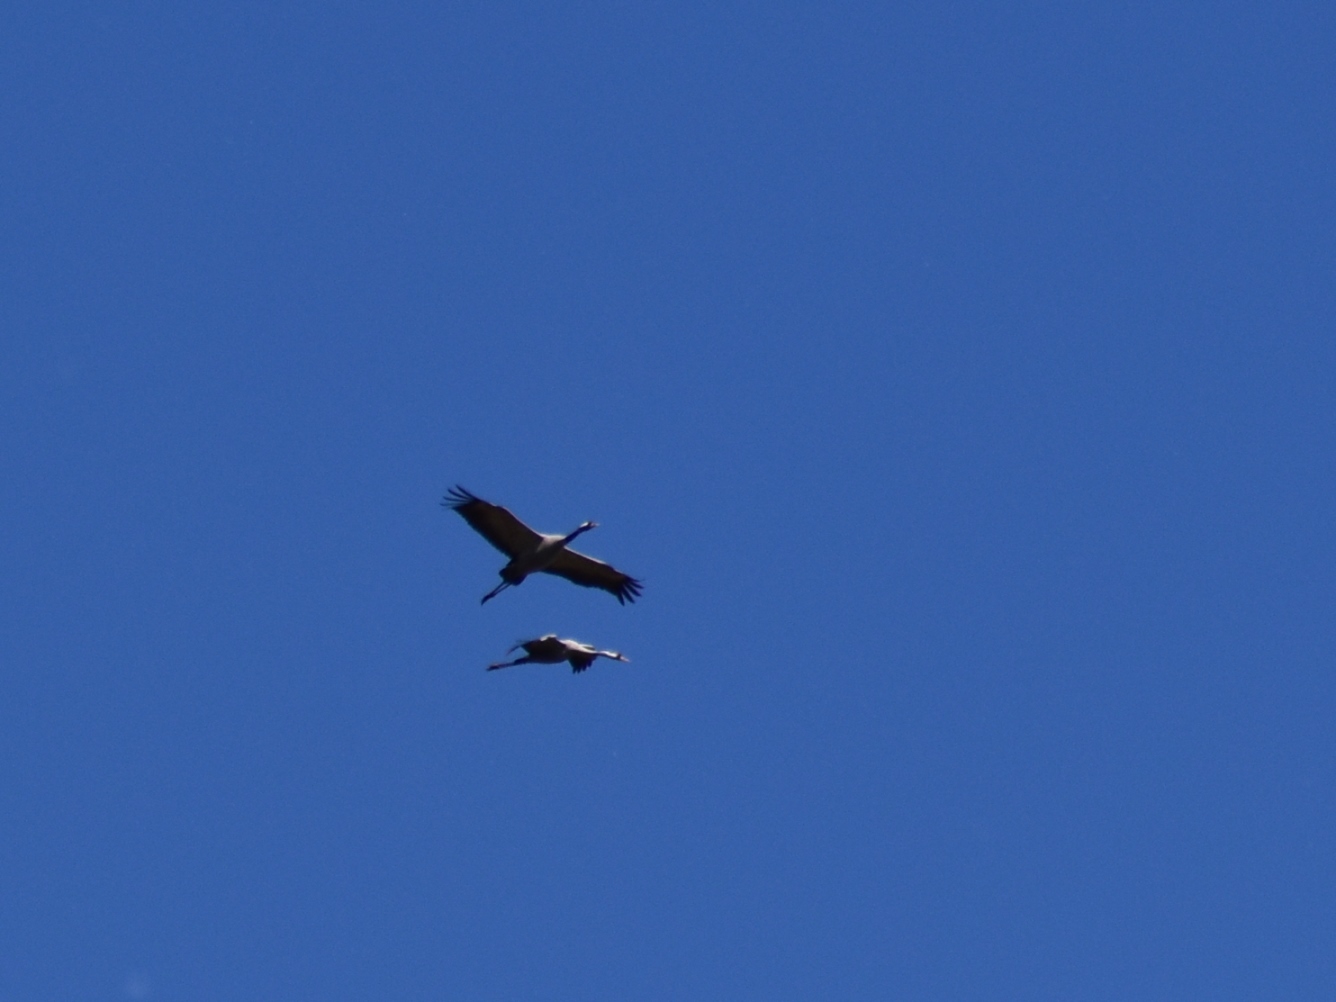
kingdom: Animalia
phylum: Chordata
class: Aves
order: Gruiformes
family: Gruidae
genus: Grus
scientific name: Grus grus
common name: Common crane
